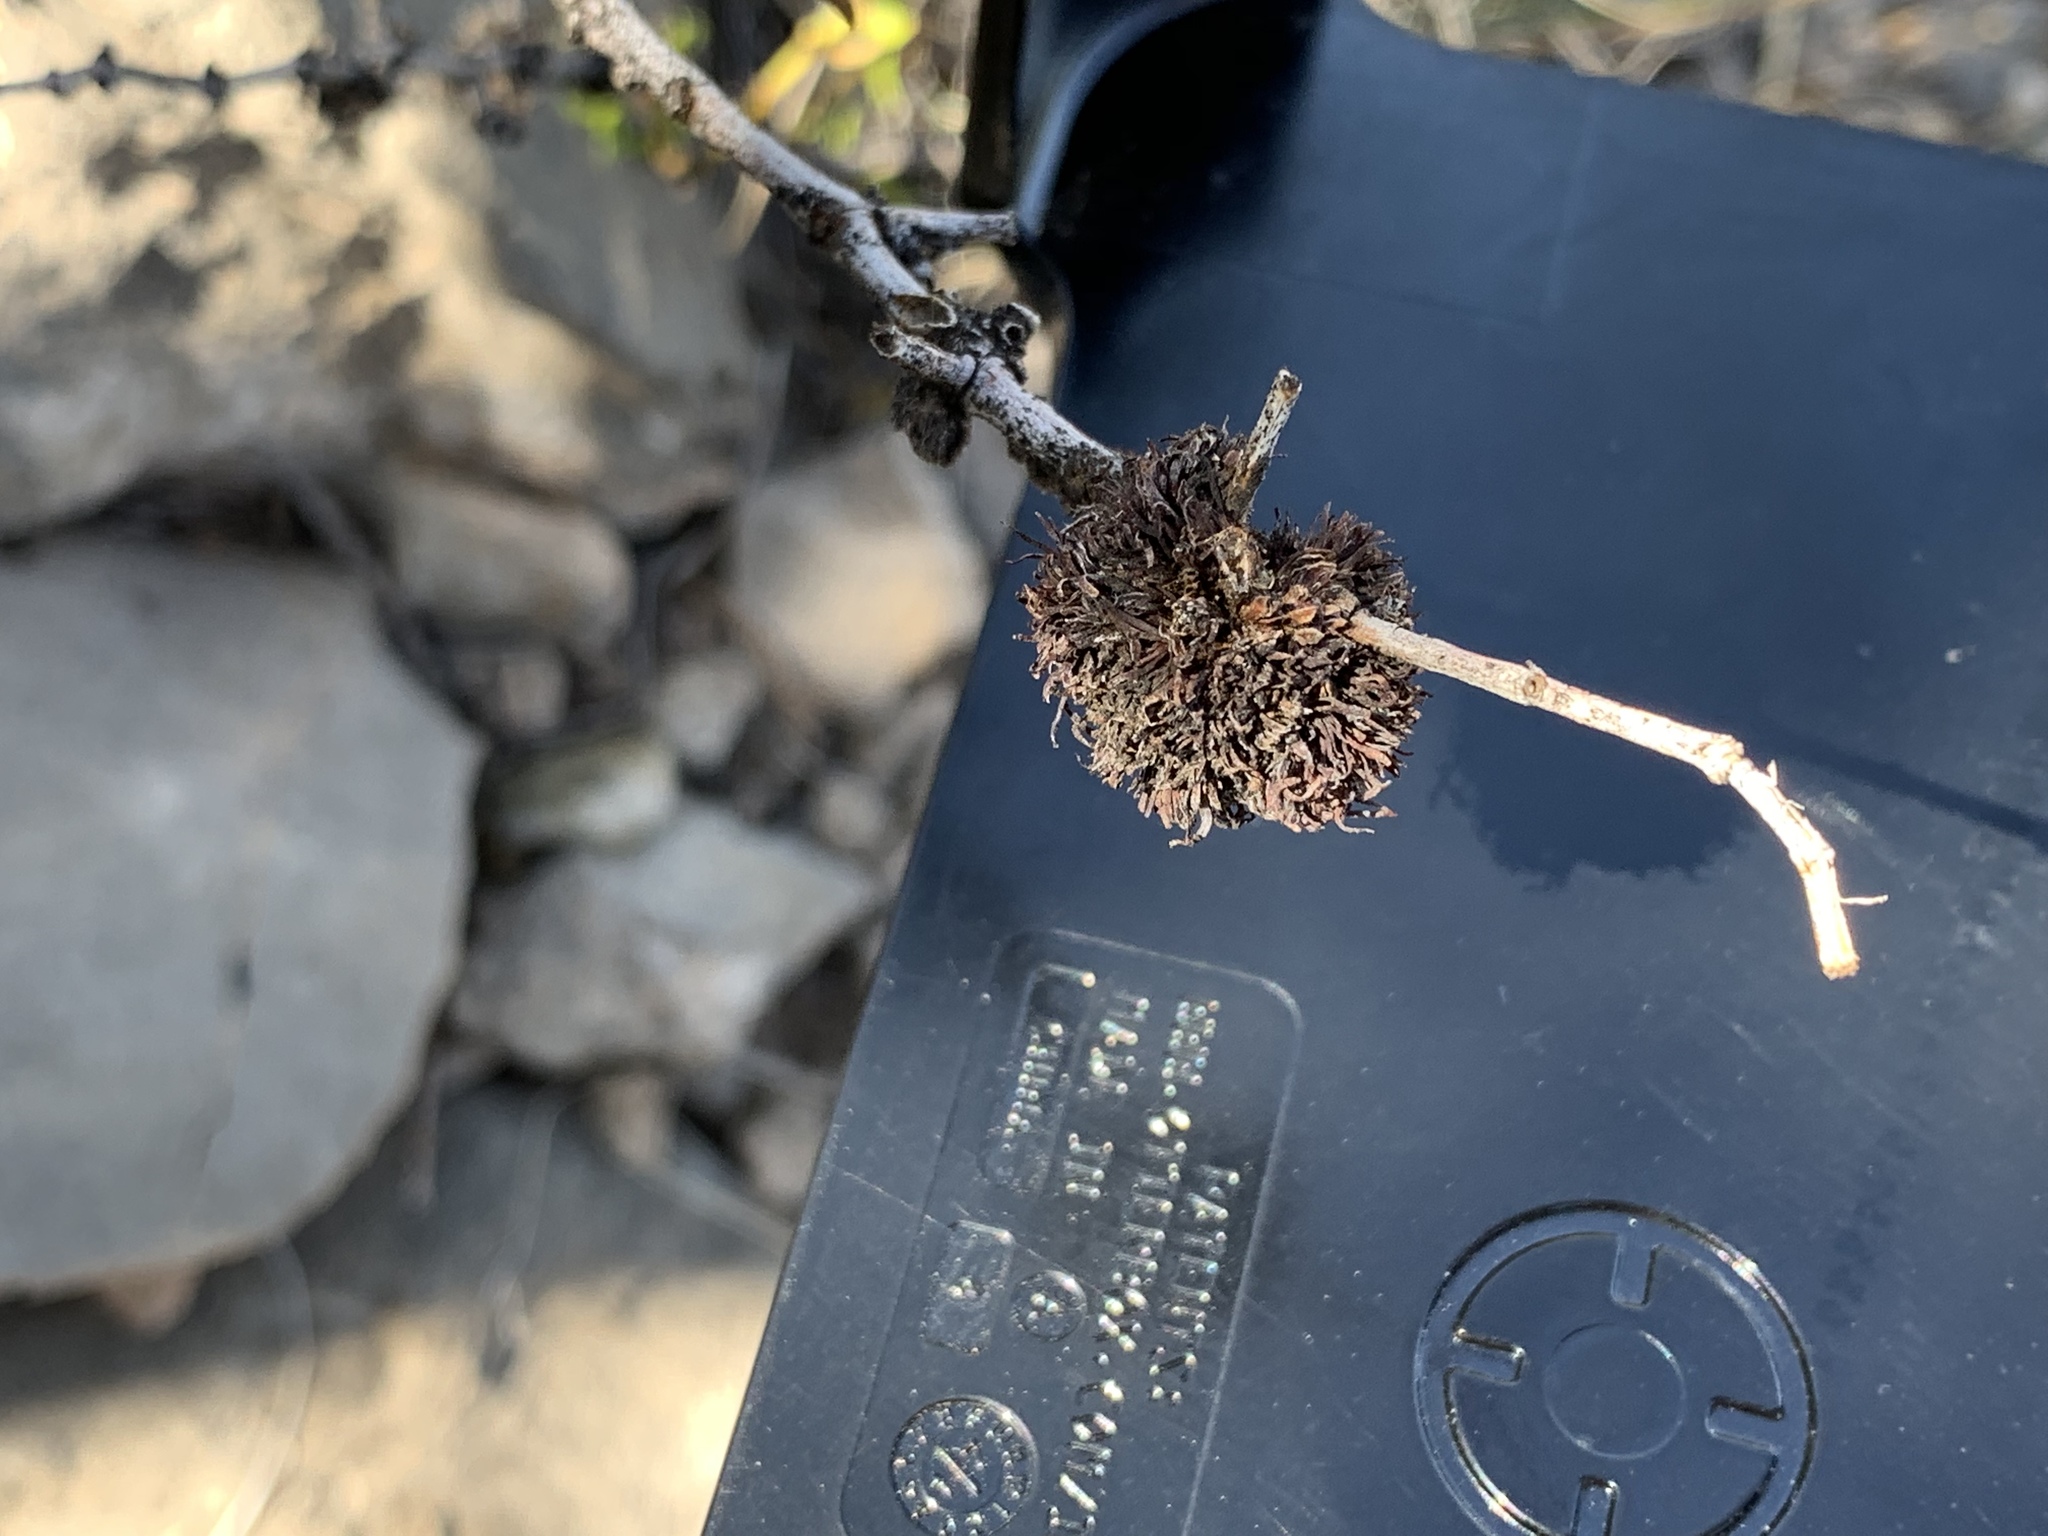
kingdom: Animalia
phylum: Arthropoda
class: Insecta
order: Diptera
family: Cecidomyiidae
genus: Asphondylia
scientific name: Asphondylia auripila
